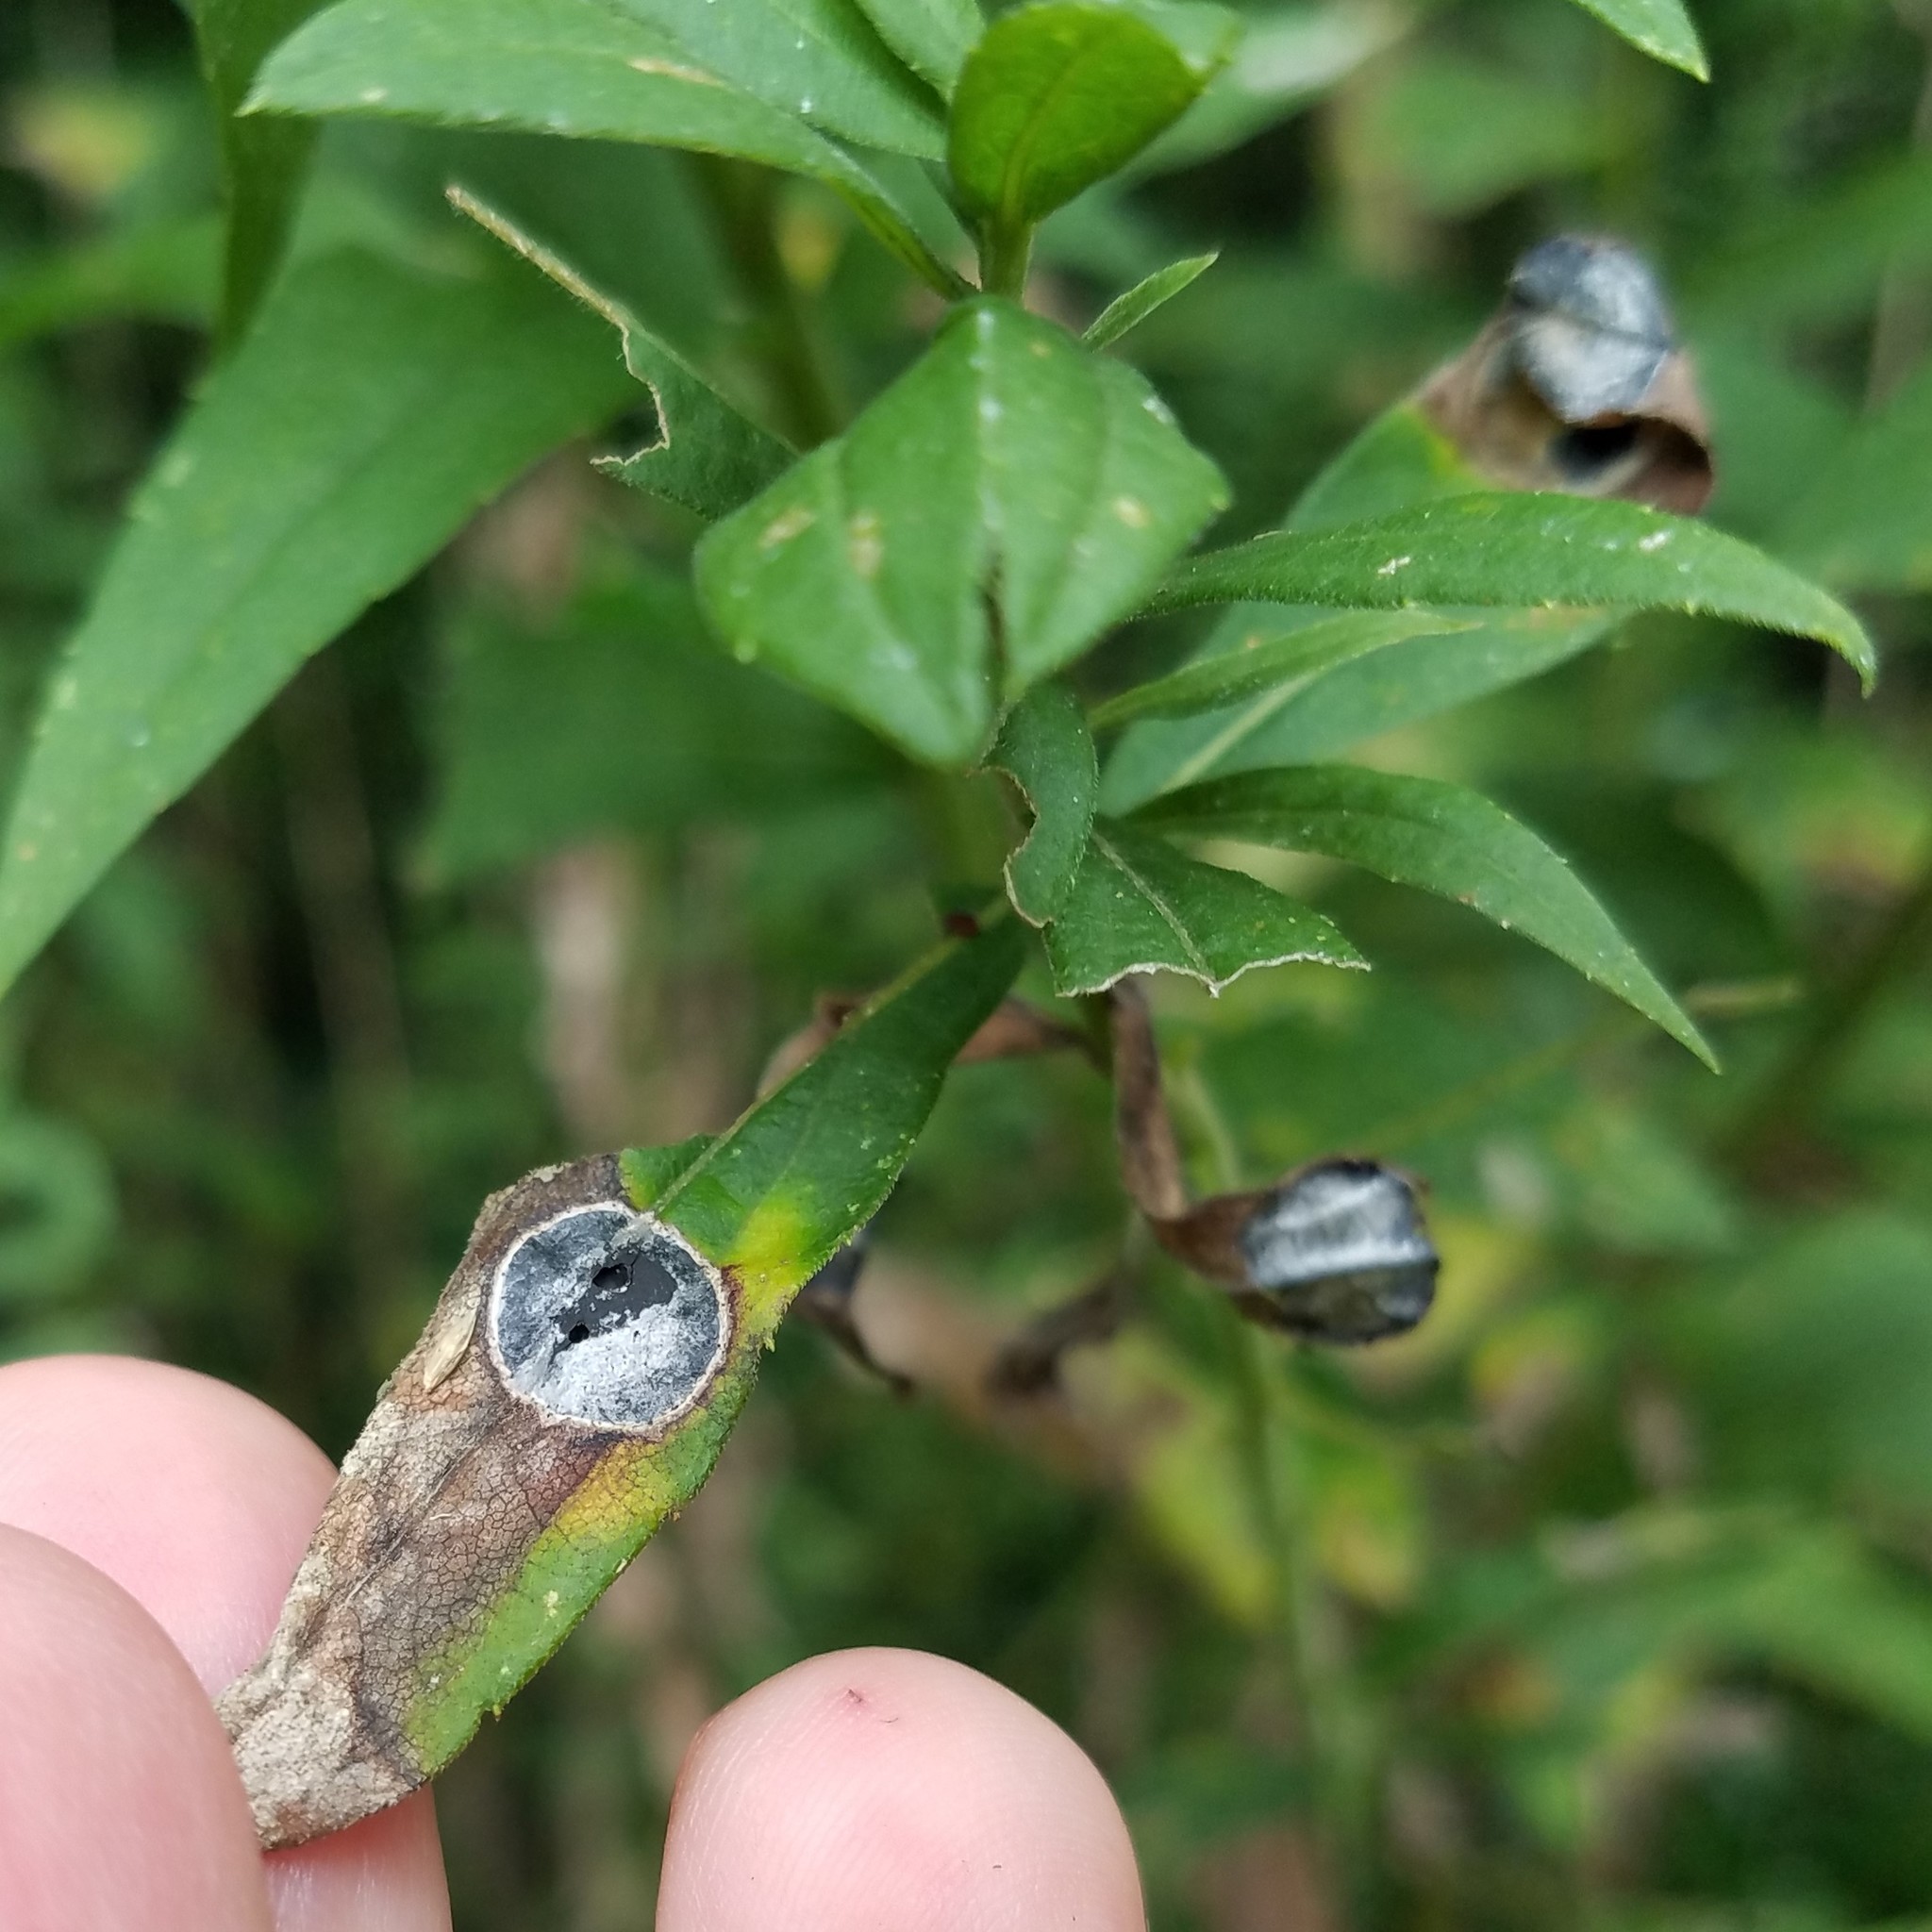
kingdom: Animalia
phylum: Arthropoda
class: Insecta
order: Diptera
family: Cecidomyiidae
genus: Asteromyia
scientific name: Asteromyia carbonifera
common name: Carbonifera goldenrod gall midge
